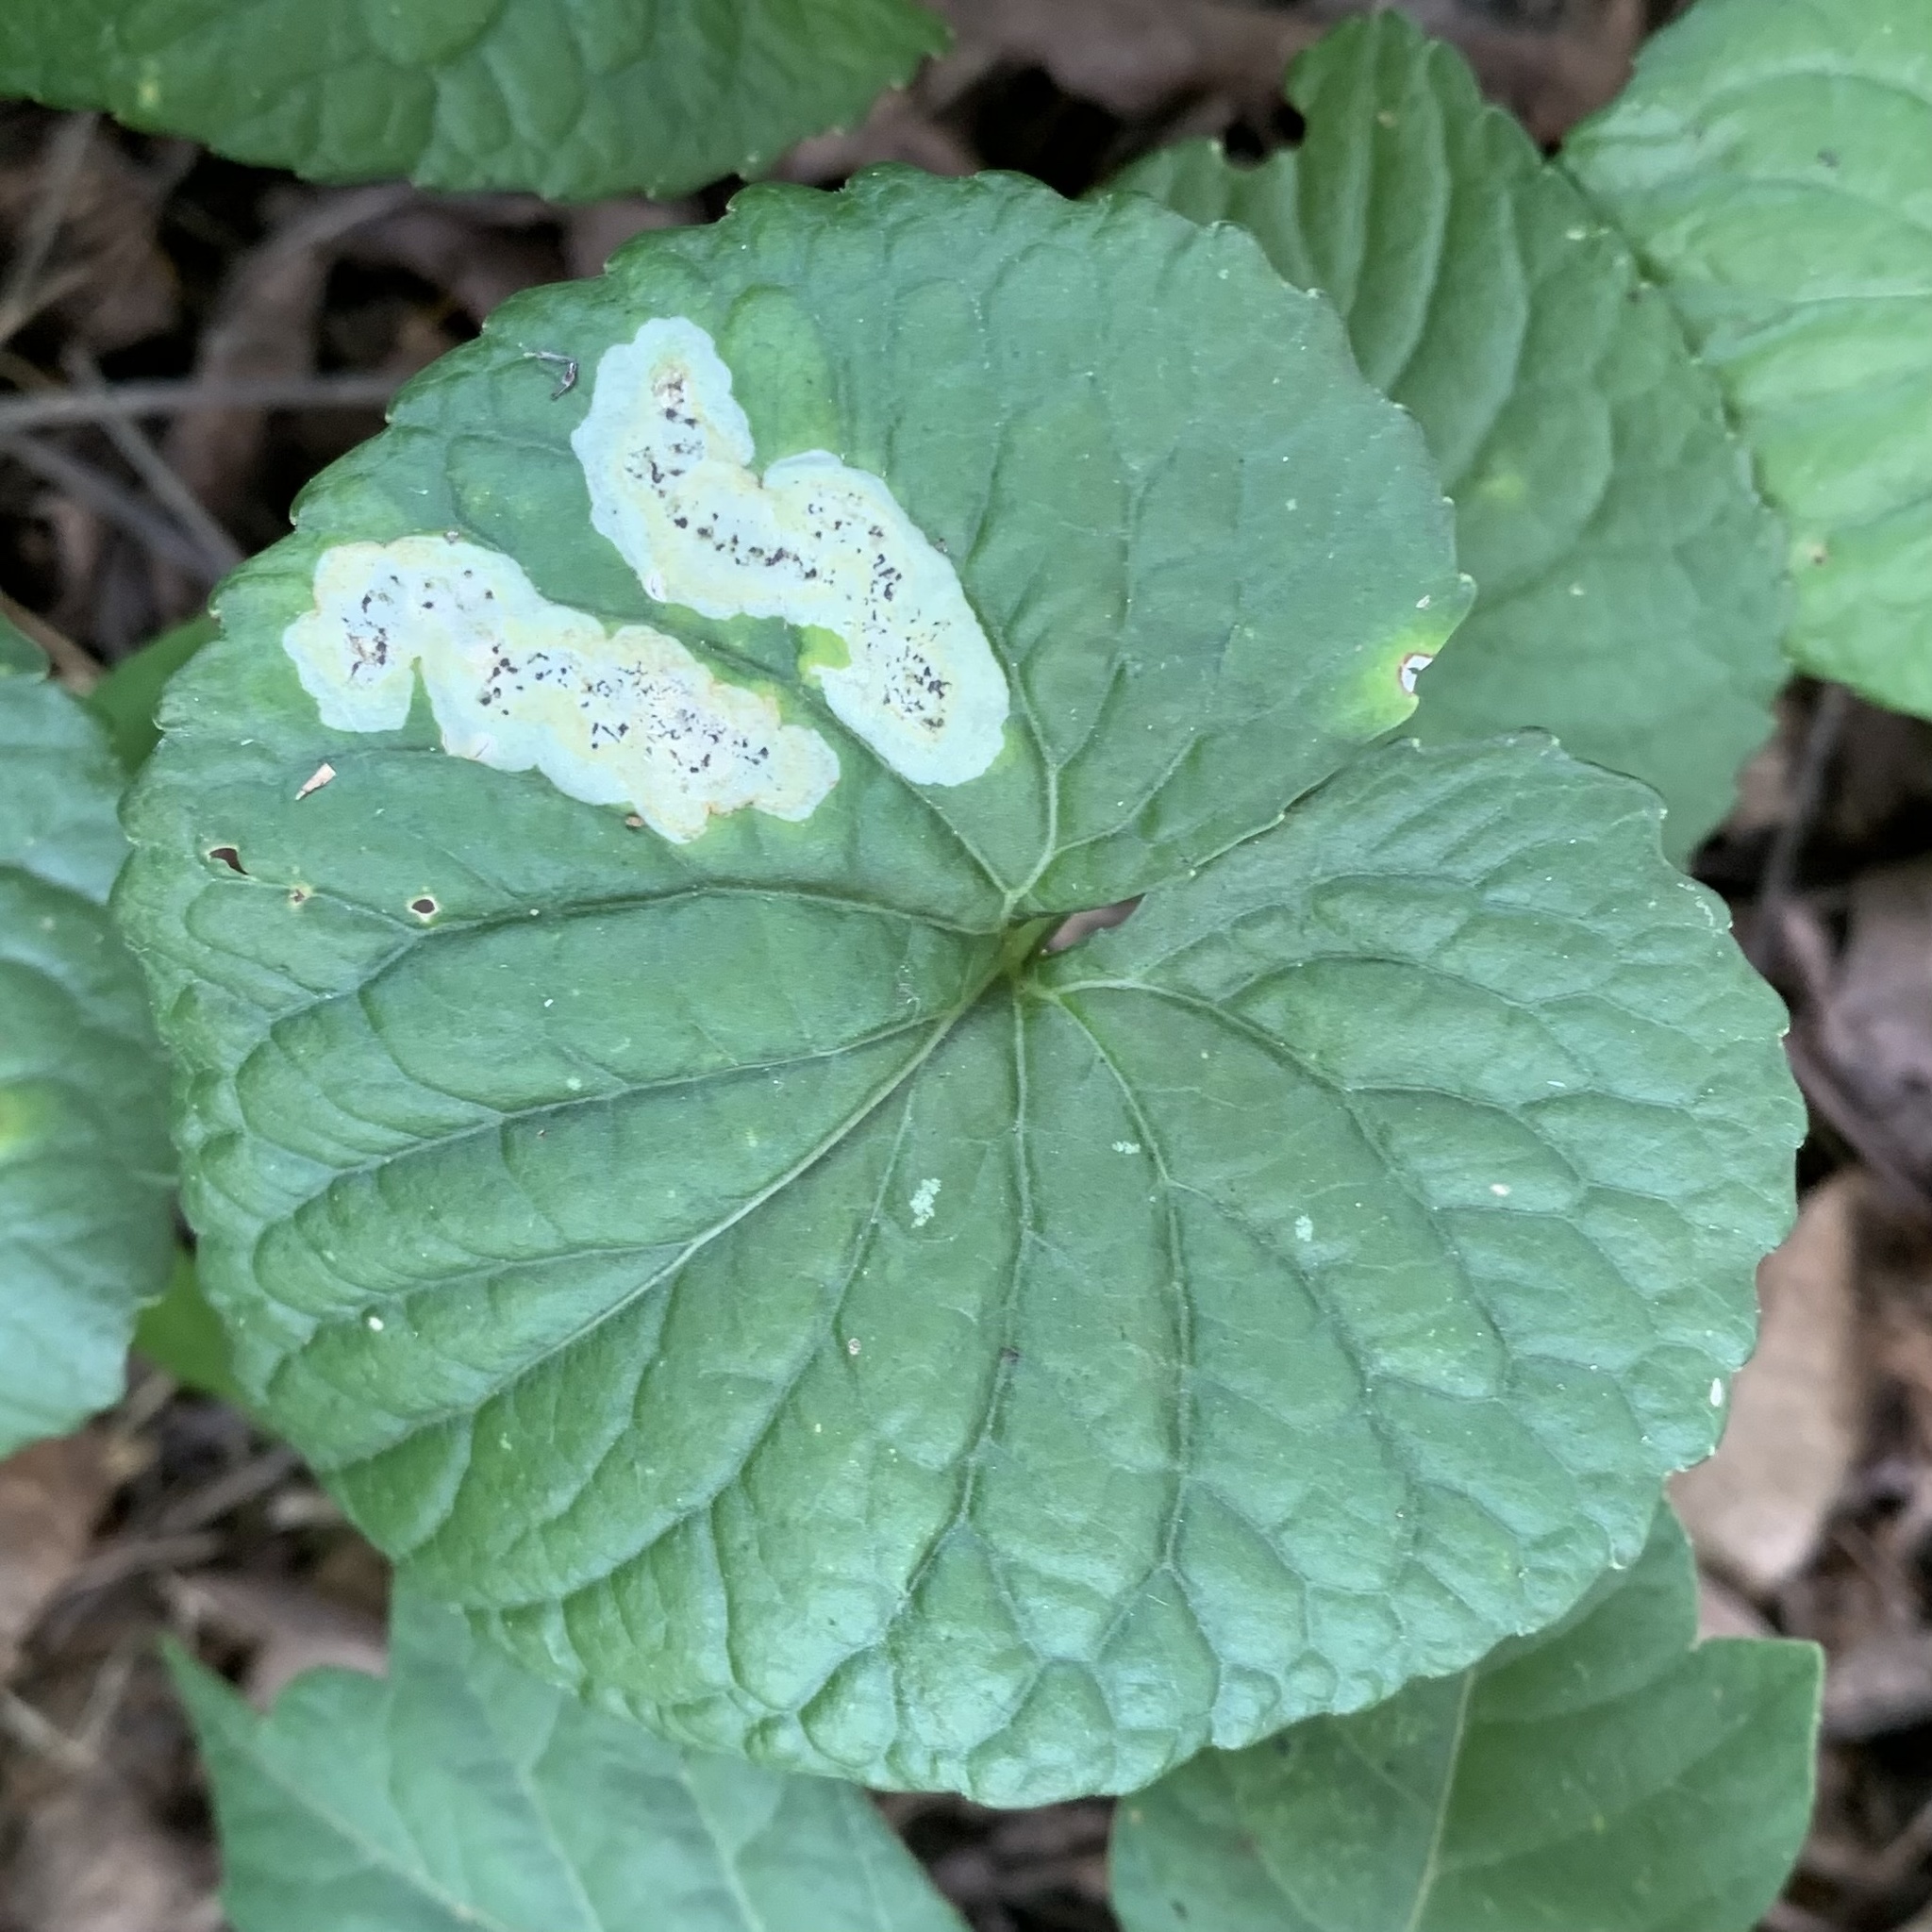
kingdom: Animalia
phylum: Arthropoda
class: Insecta
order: Diptera
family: Agromyzidae
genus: Liriomyza
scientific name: Liriomyza violivora
